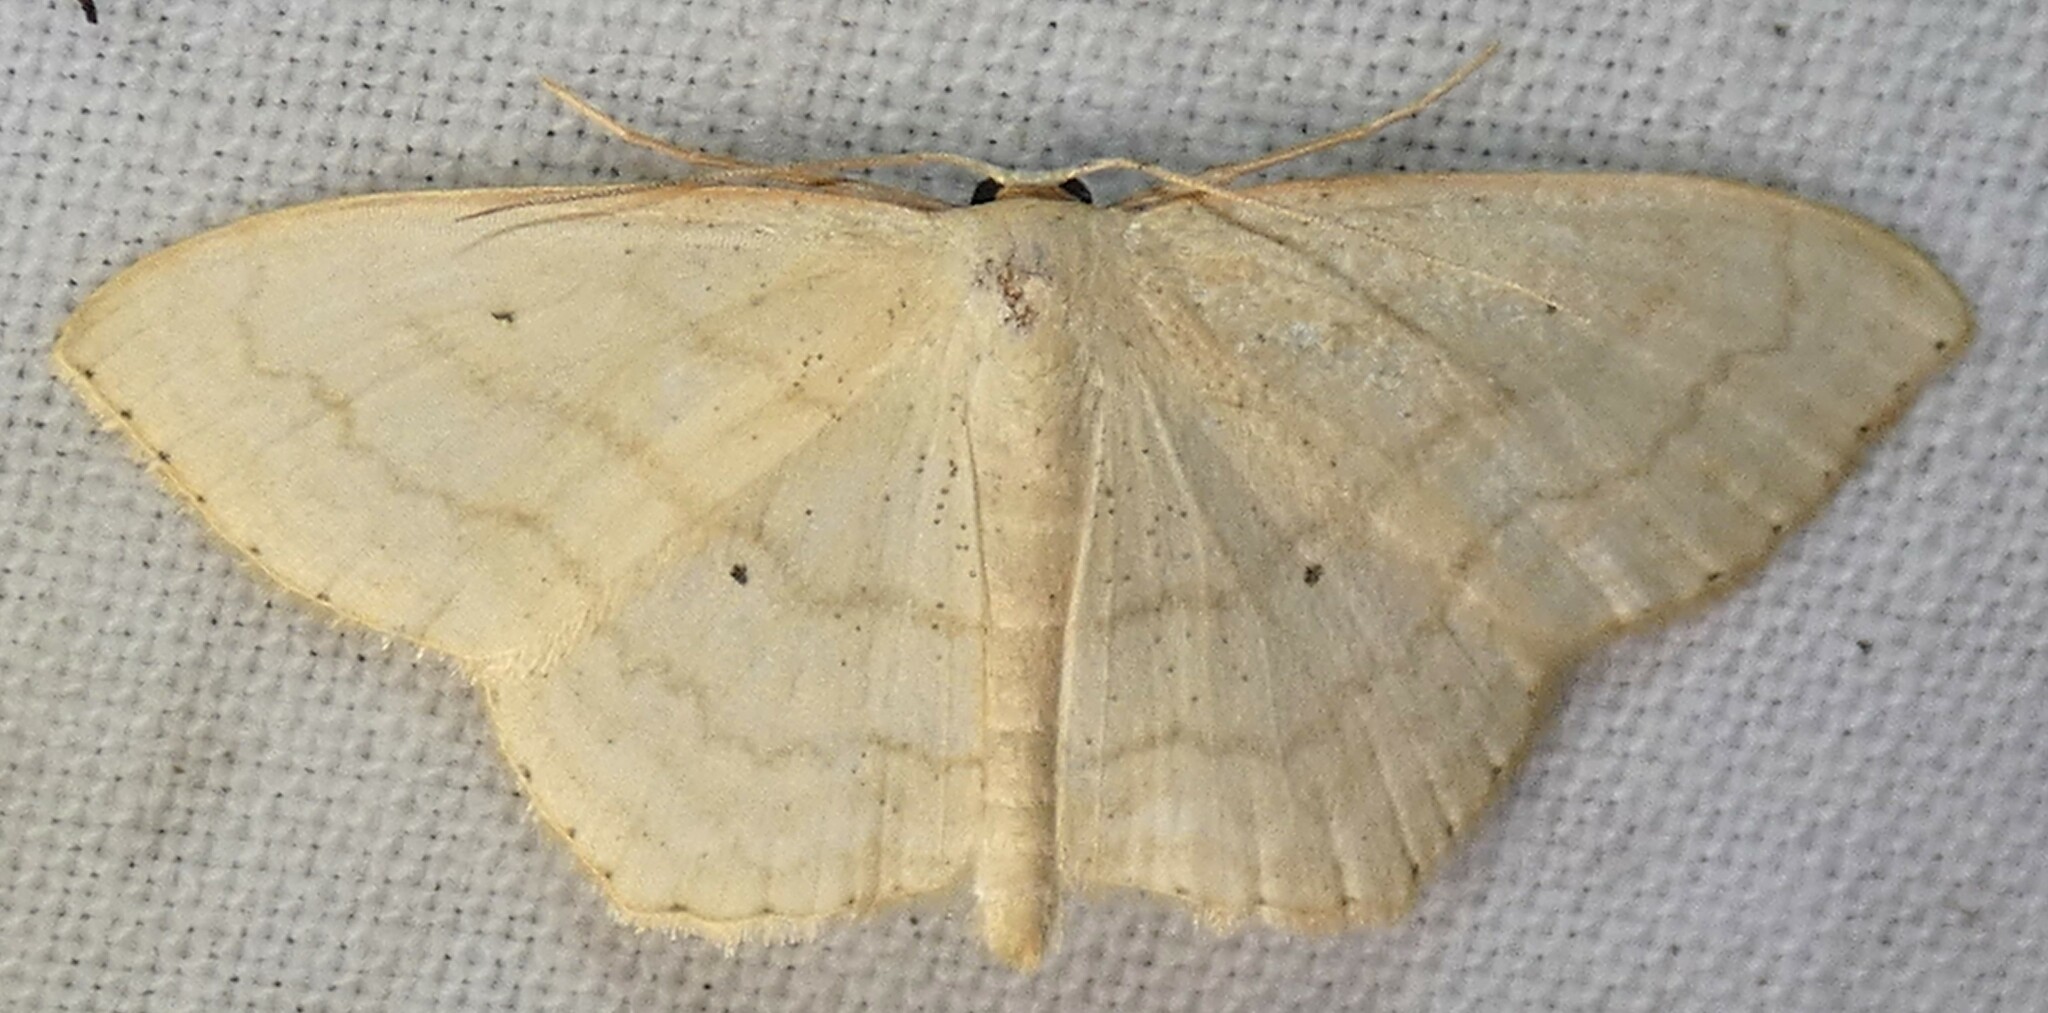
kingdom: Animalia
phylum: Arthropoda
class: Insecta
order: Lepidoptera
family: Geometridae
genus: Scopula
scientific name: Scopula limboundata
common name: Large lace border
